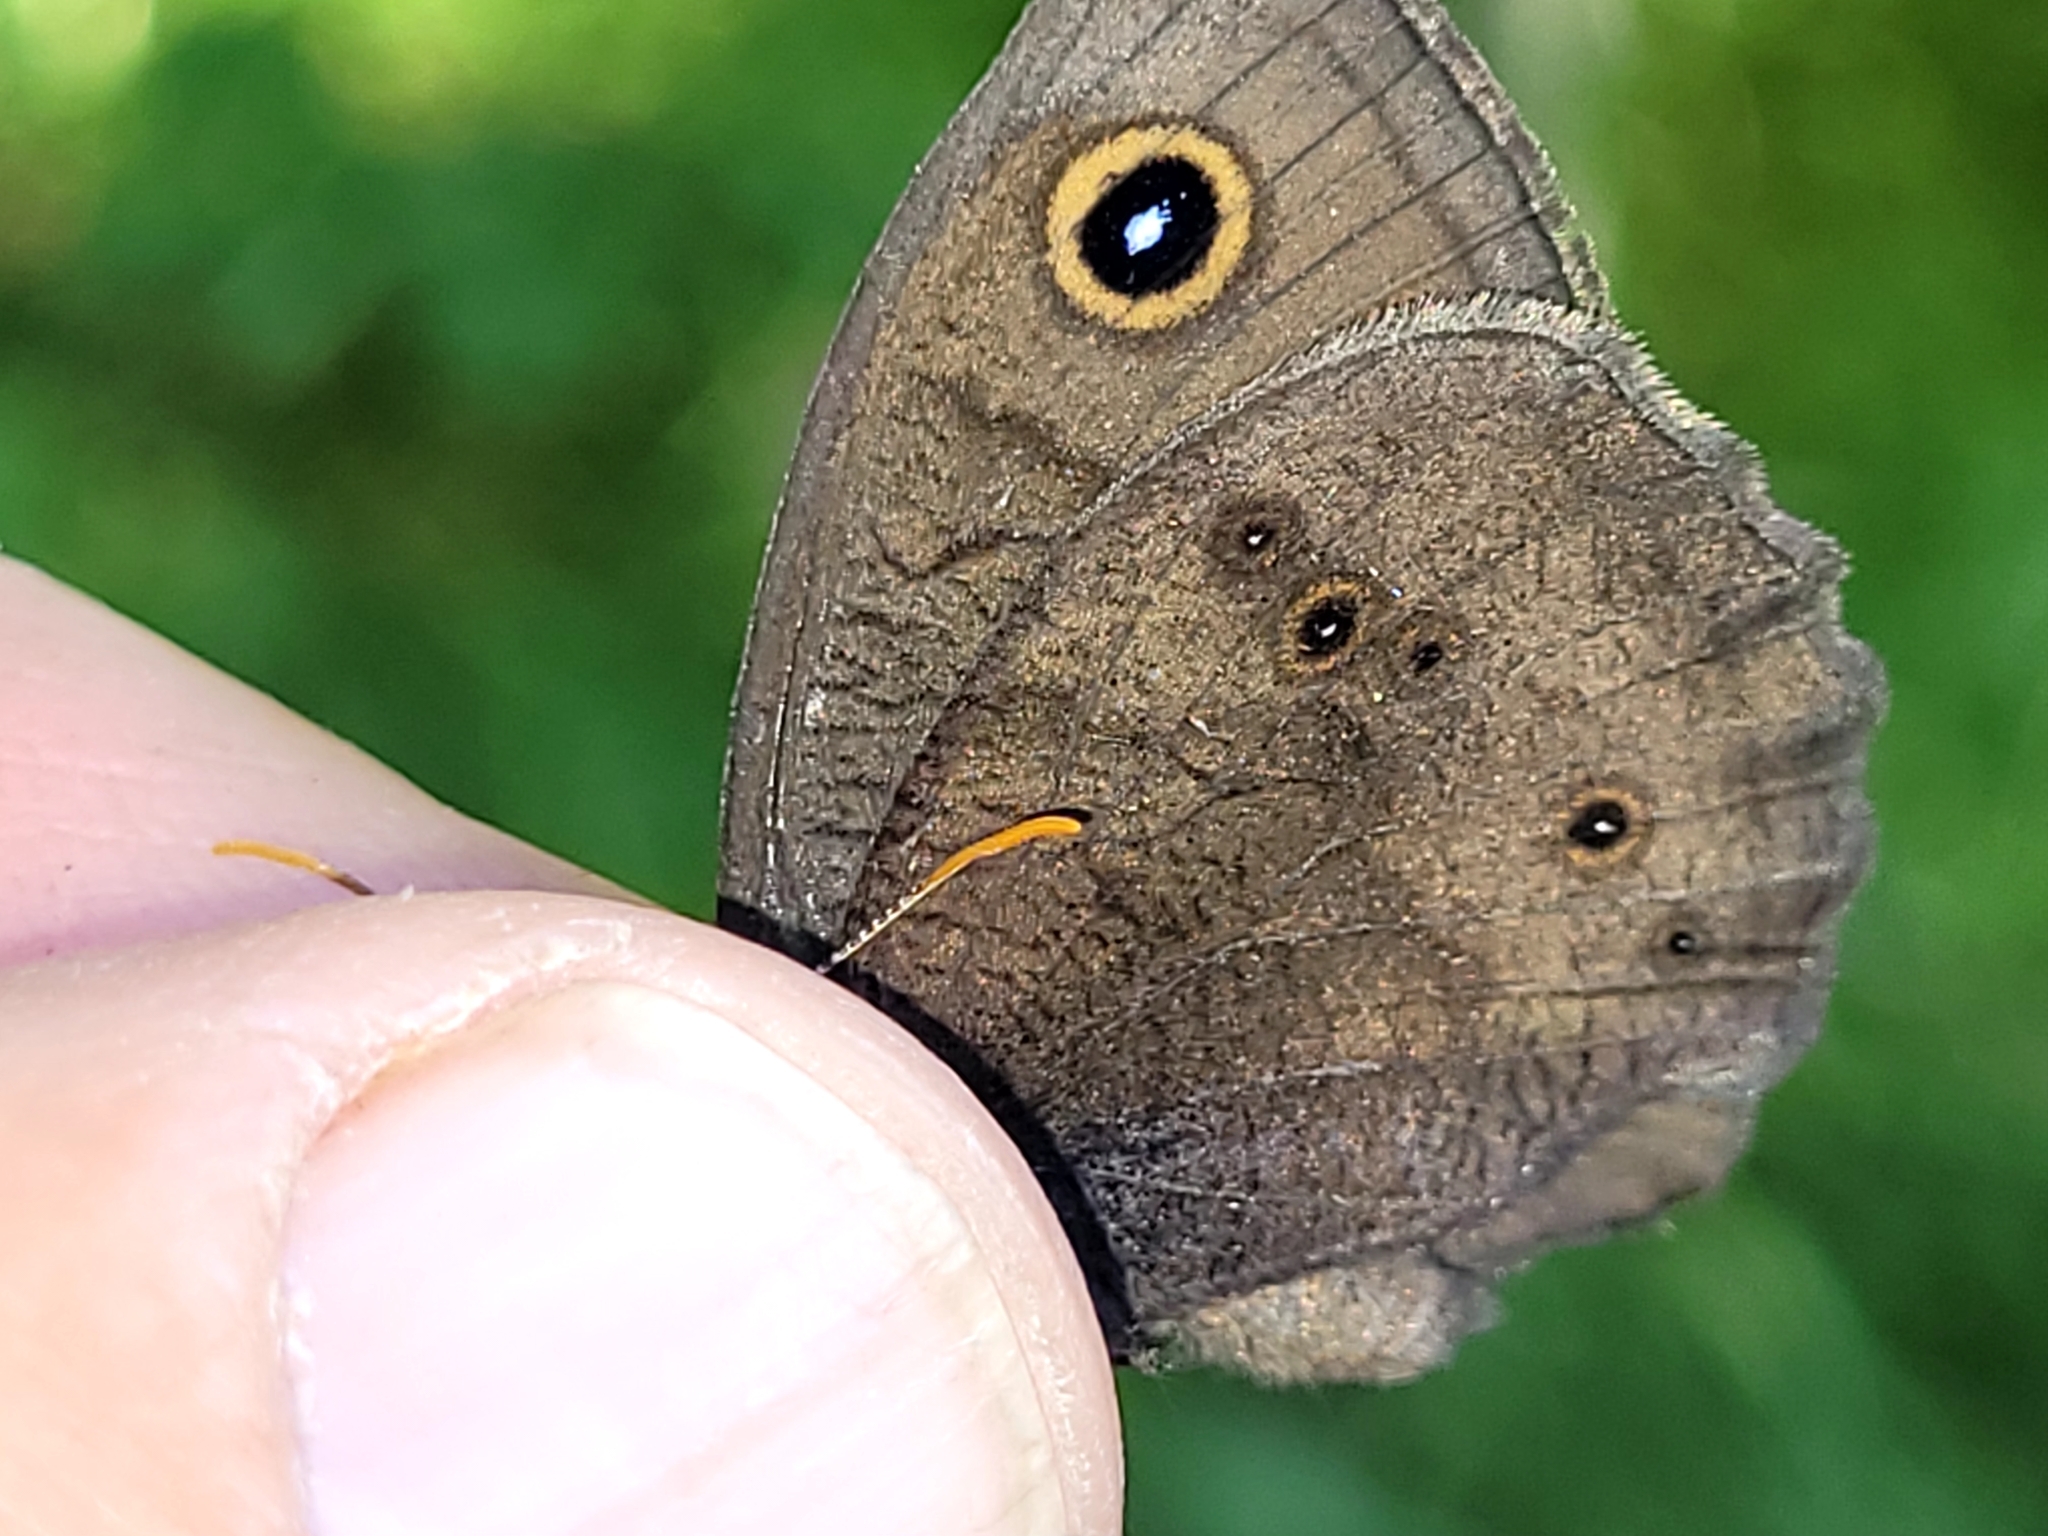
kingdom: Animalia
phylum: Arthropoda
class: Insecta
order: Lepidoptera
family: Nymphalidae
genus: Cercyonis
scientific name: Cercyonis pegala
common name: Common wood-nymph
